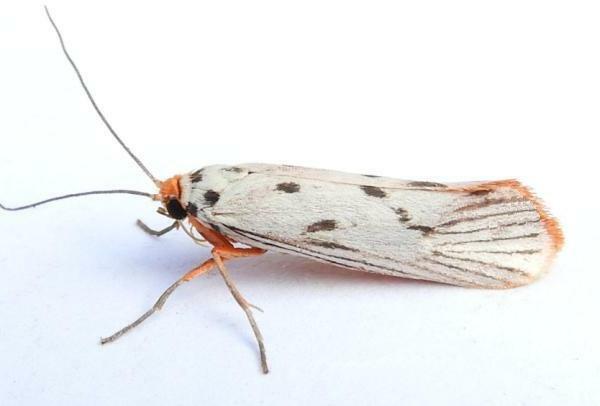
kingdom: Animalia
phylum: Arthropoda
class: Insecta
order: Lepidoptera
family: Lacturidae
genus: Lactura
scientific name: Lactura
